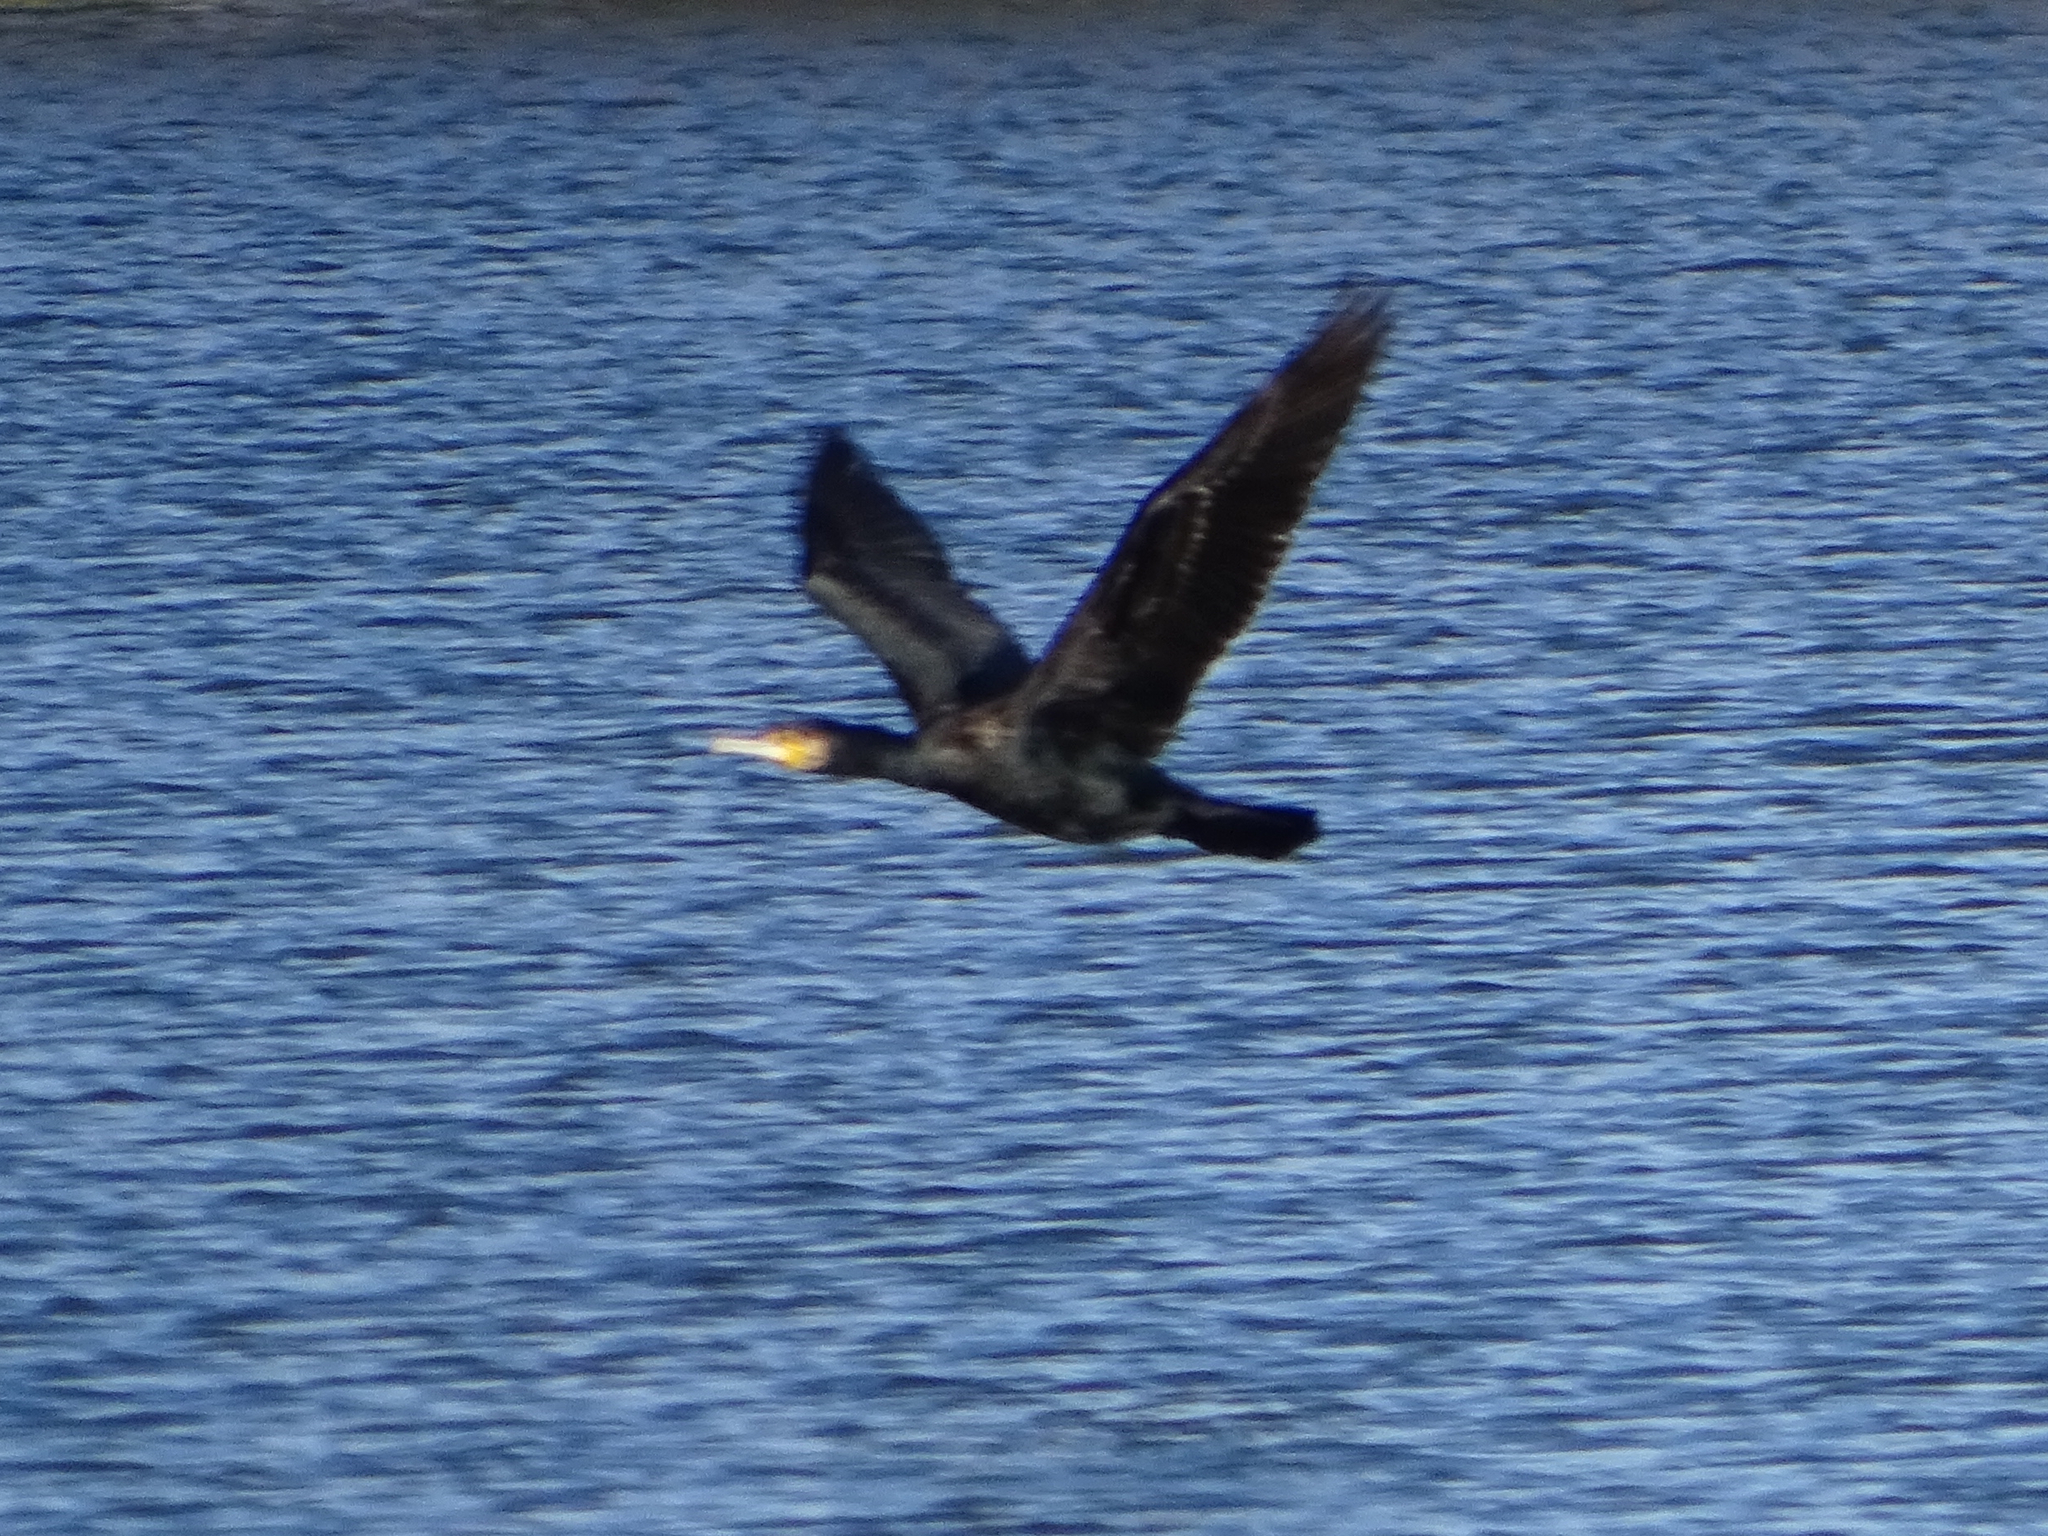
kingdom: Animalia
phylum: Chordata
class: Aves
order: Suliformes
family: Phalacrocoracidae
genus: Phalacrocorax
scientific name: Phalacrocorax carbo
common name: Great cormorant
